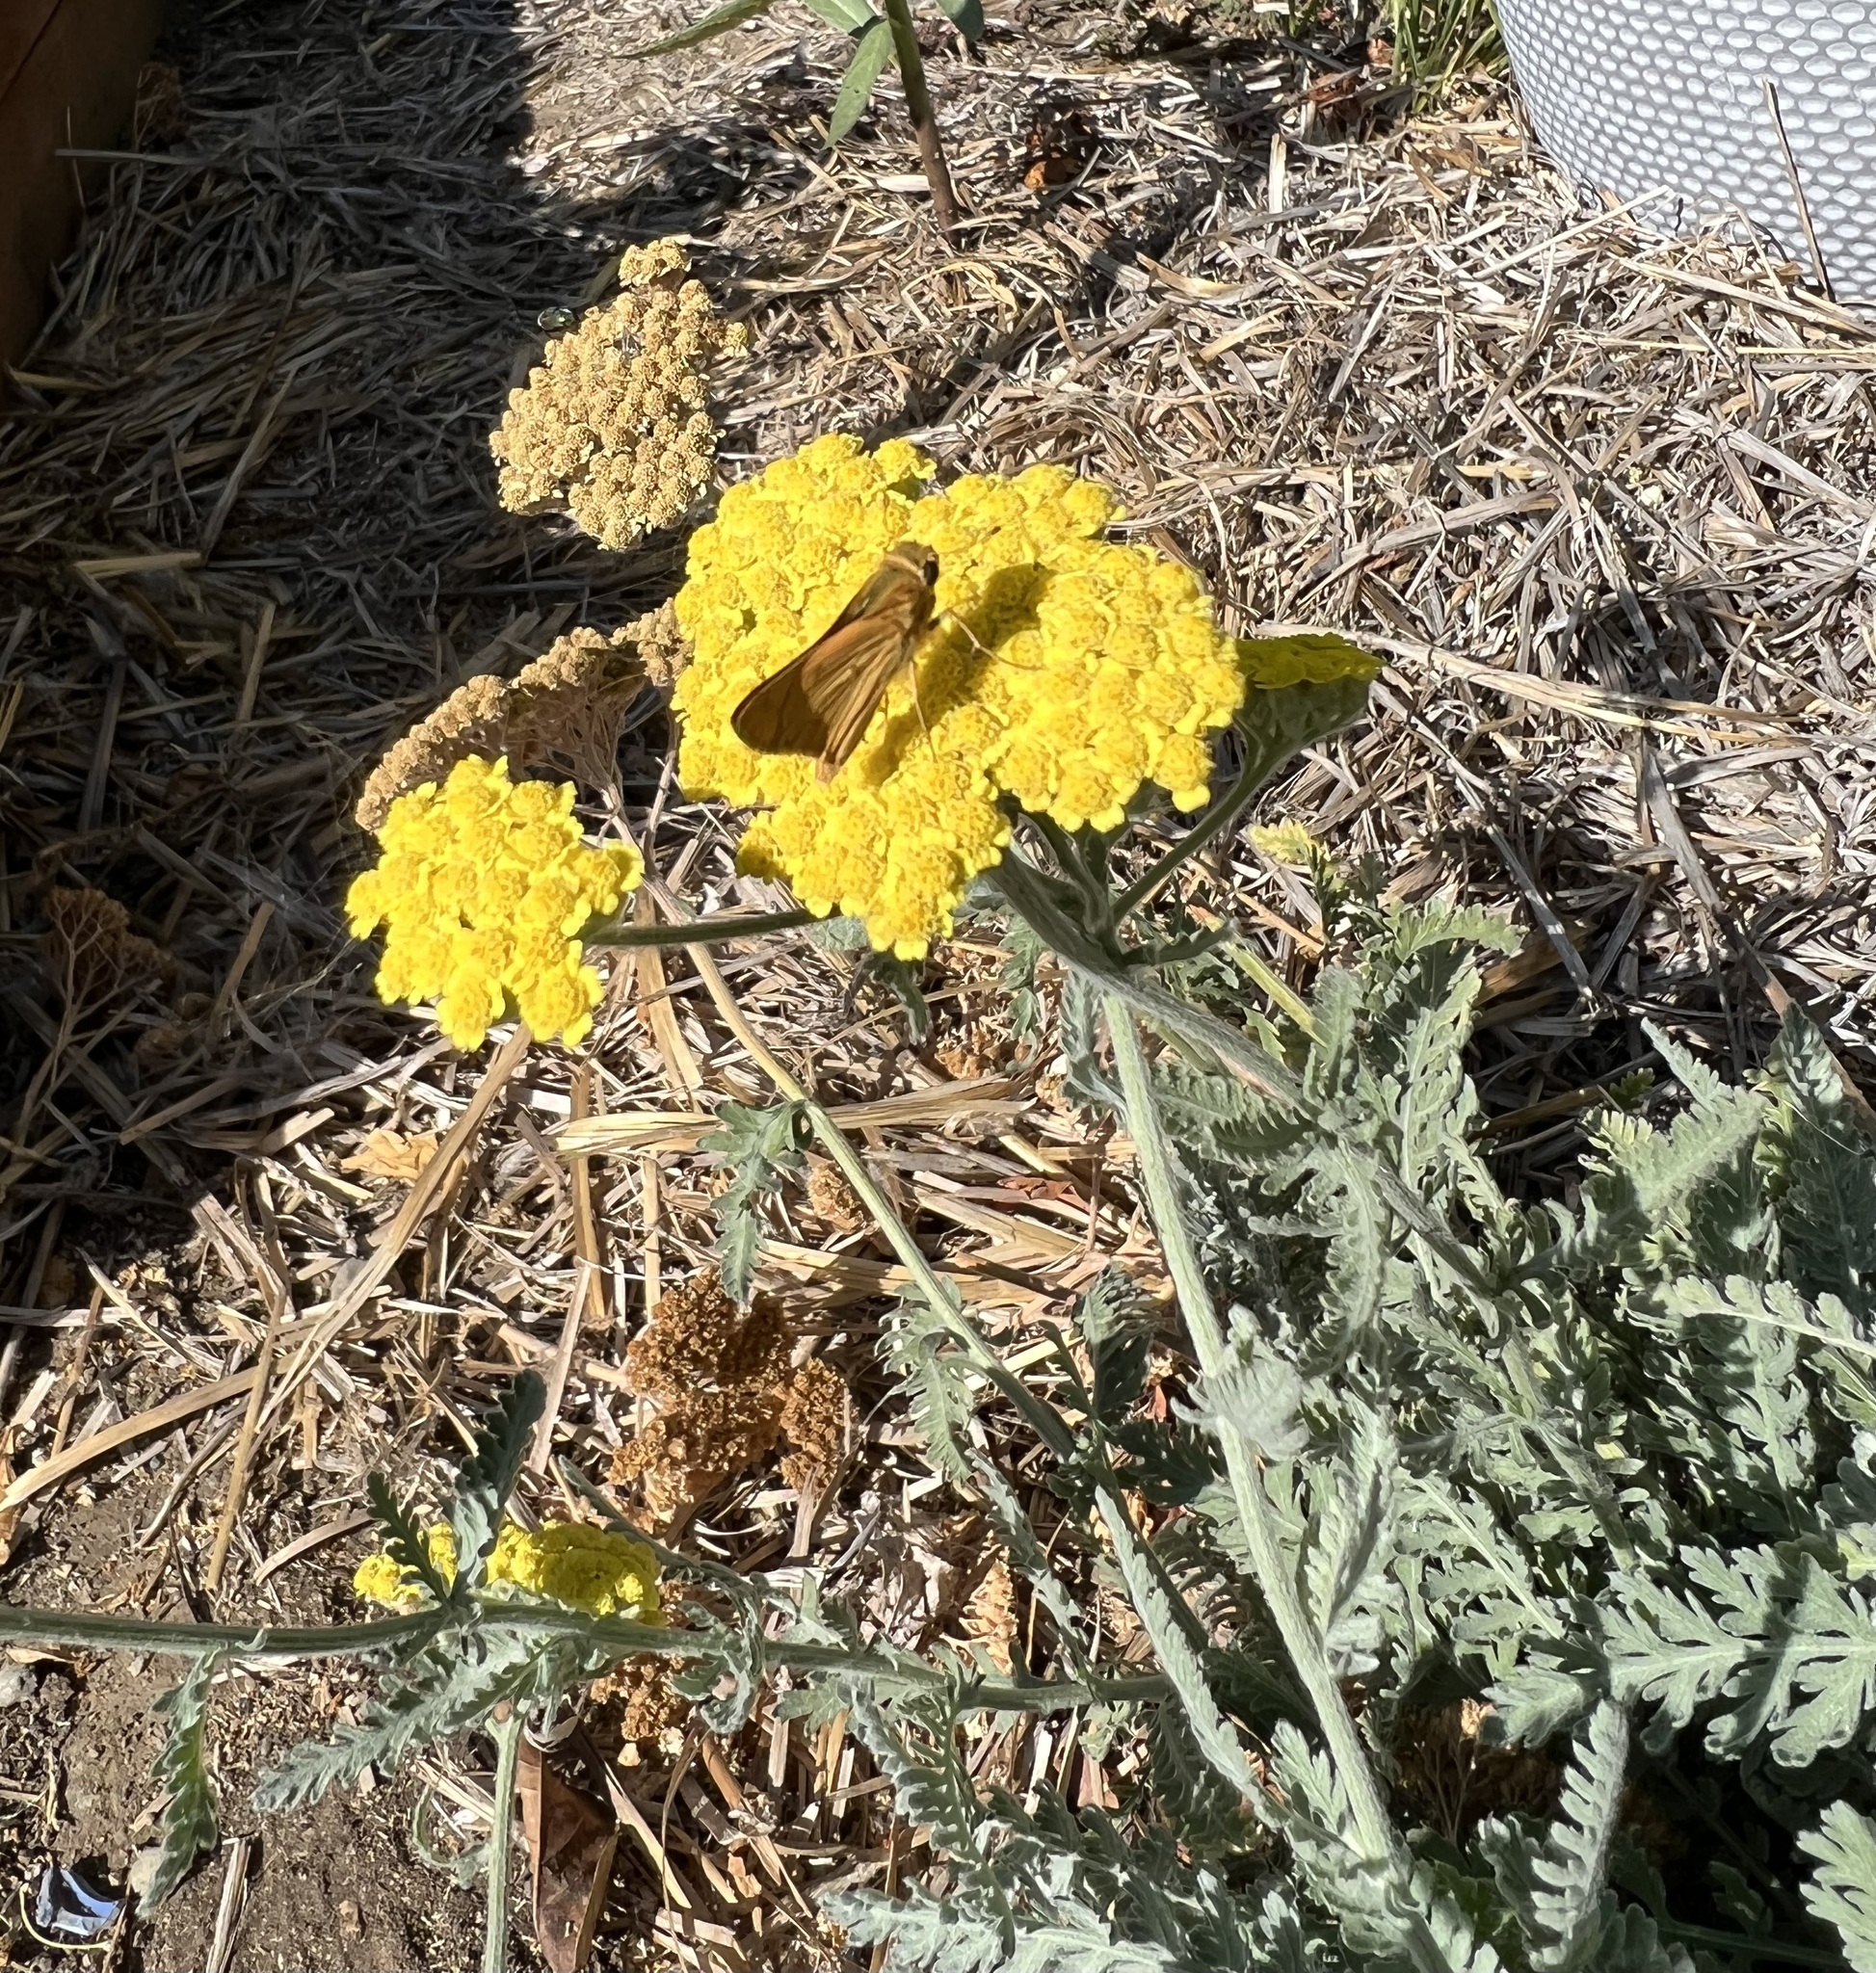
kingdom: Animalia
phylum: Arthropoda
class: Insecta
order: Lepidoptera
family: Hesperiidae
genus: Hylephila
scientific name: Hylephila phyleus
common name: Fiery skipper
